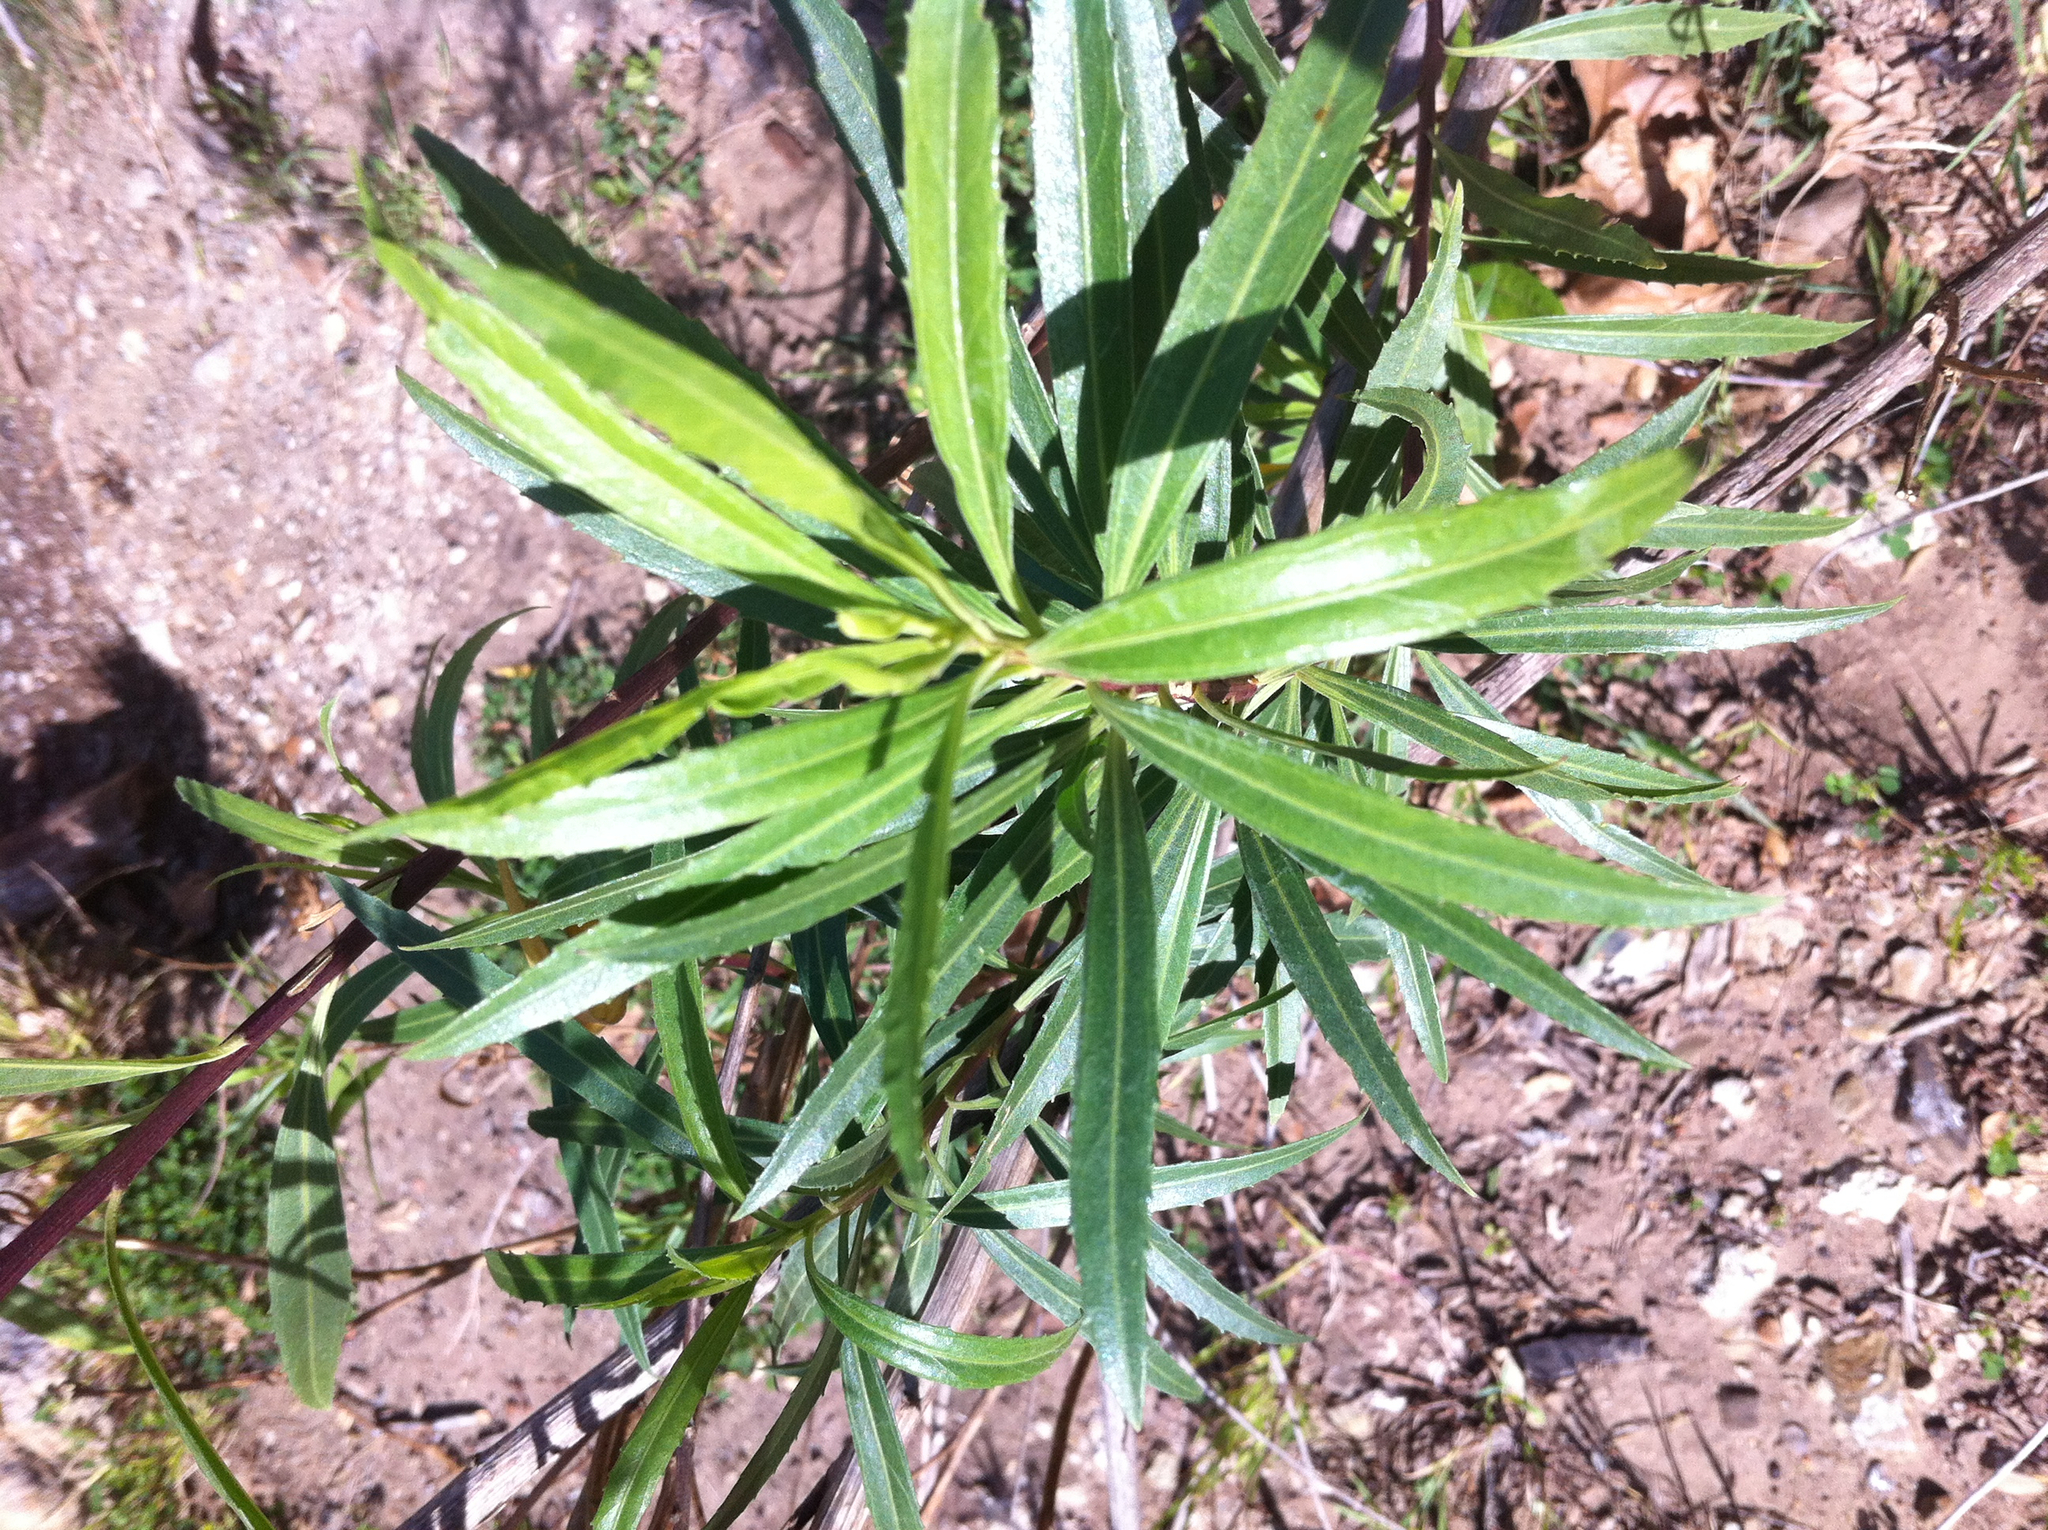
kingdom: Plantae
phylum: Tracheophyta
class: Magnoliopsida
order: Asterales
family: Asteraceae
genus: Baccharis
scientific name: Baccharis salicifolia
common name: Sticky baccharis
